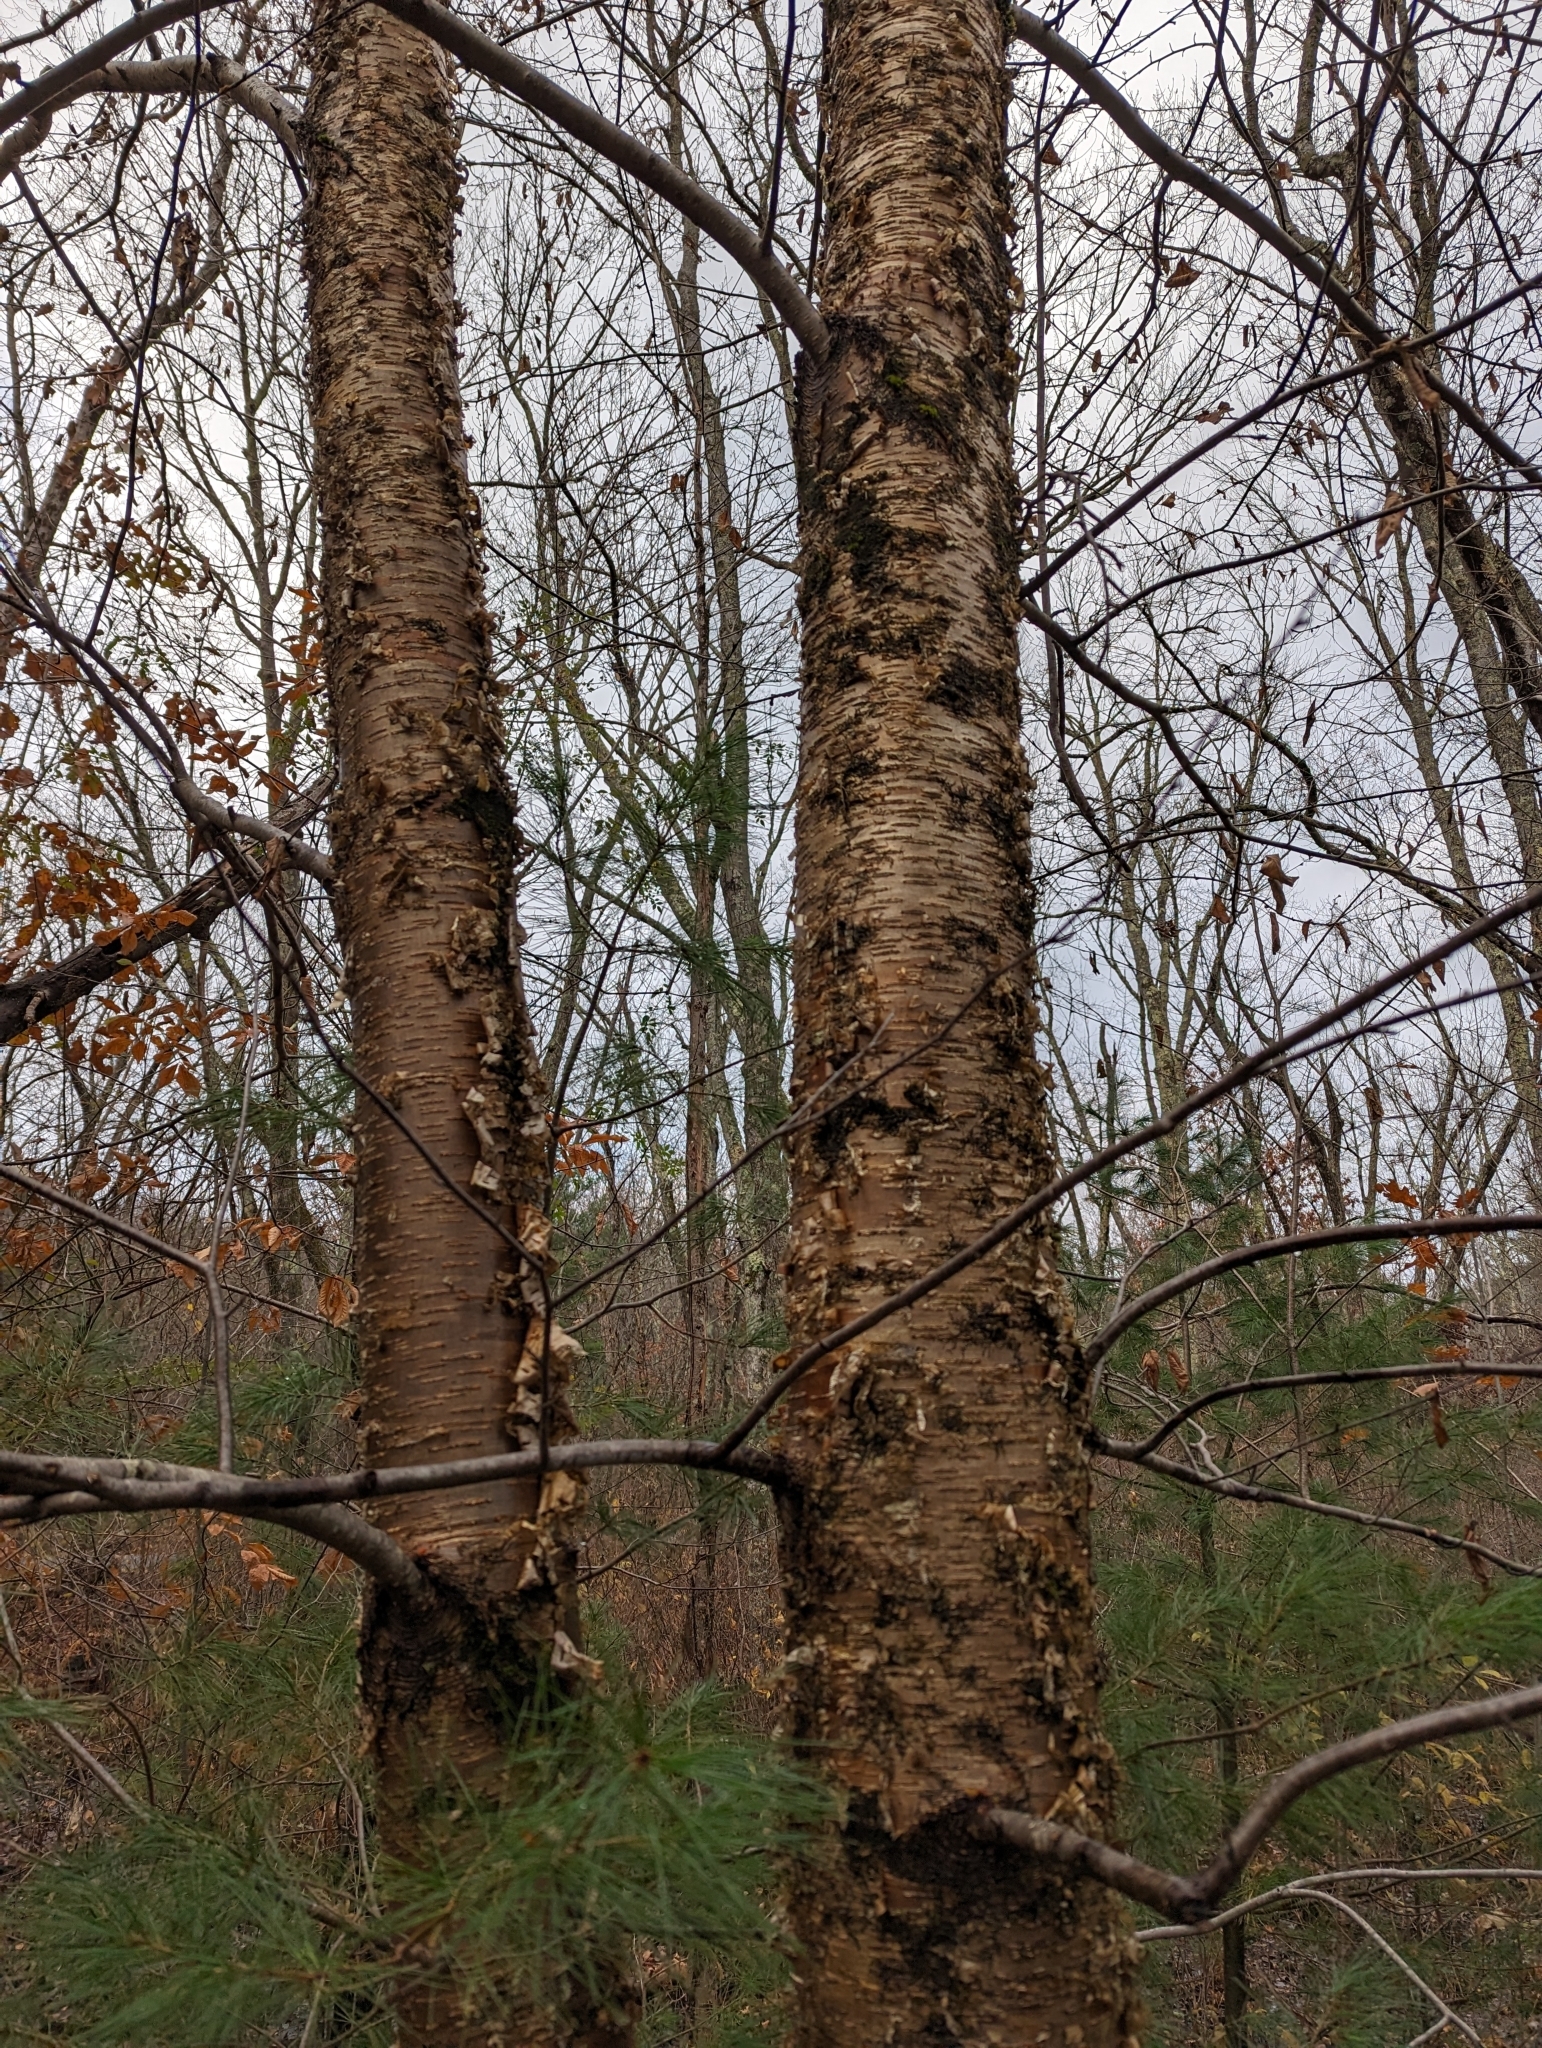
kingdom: Plantae
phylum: Tracheophyta
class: Magnoliopsida
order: Fagales
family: Betulaceae
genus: Betula
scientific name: Betula alleghaniensis
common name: Yellow birch
